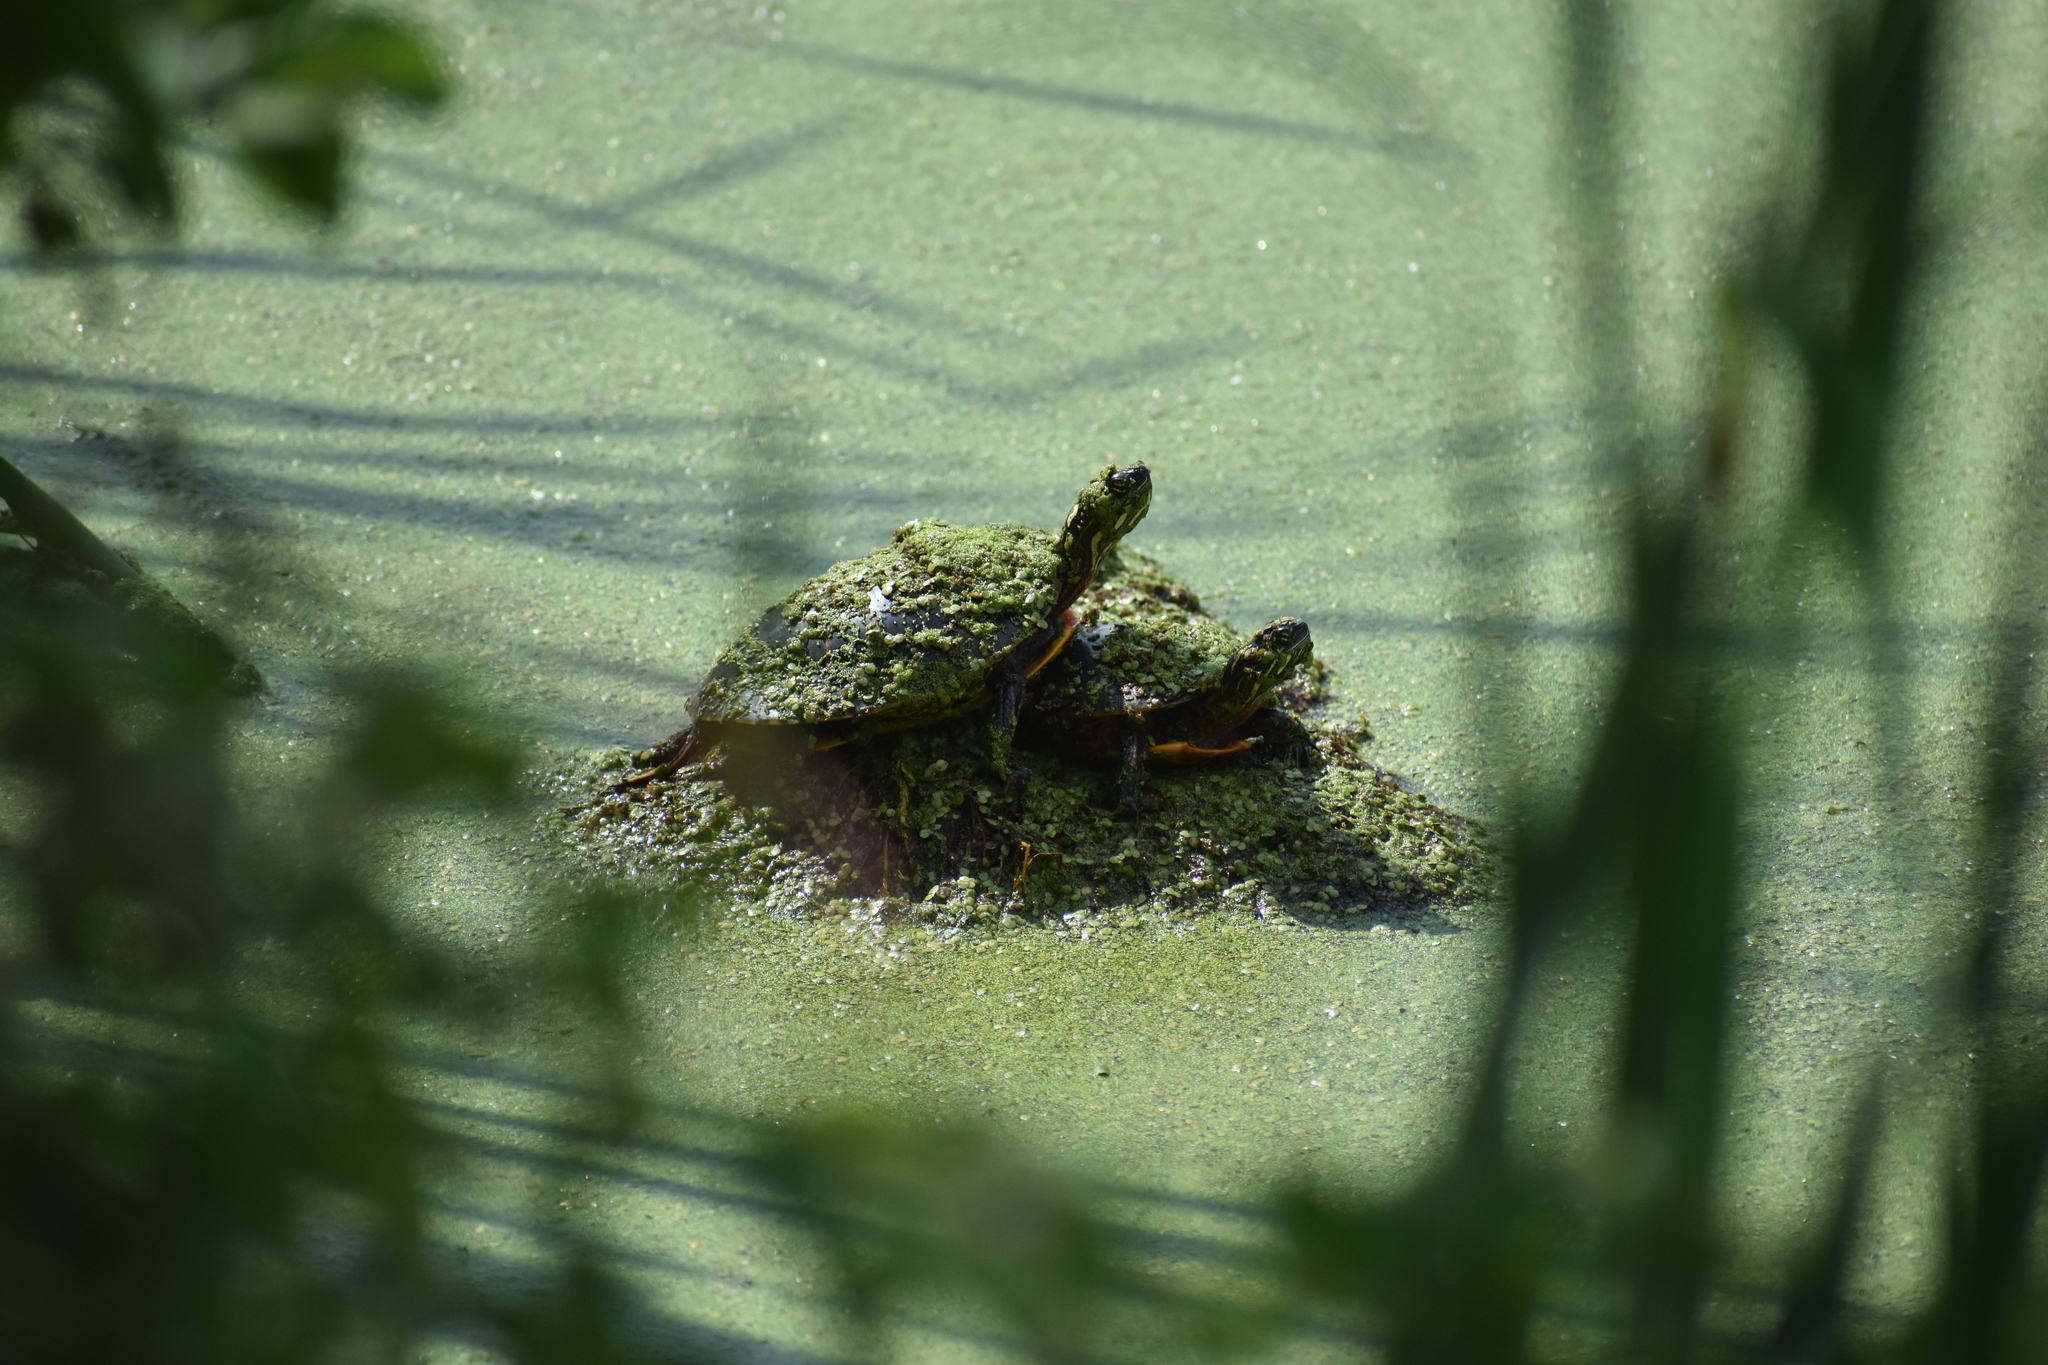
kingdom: Animalia
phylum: Chordata
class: Testudines
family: Emydidae
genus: Chrysemys
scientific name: Chrysemys picta
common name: Painted turtle
